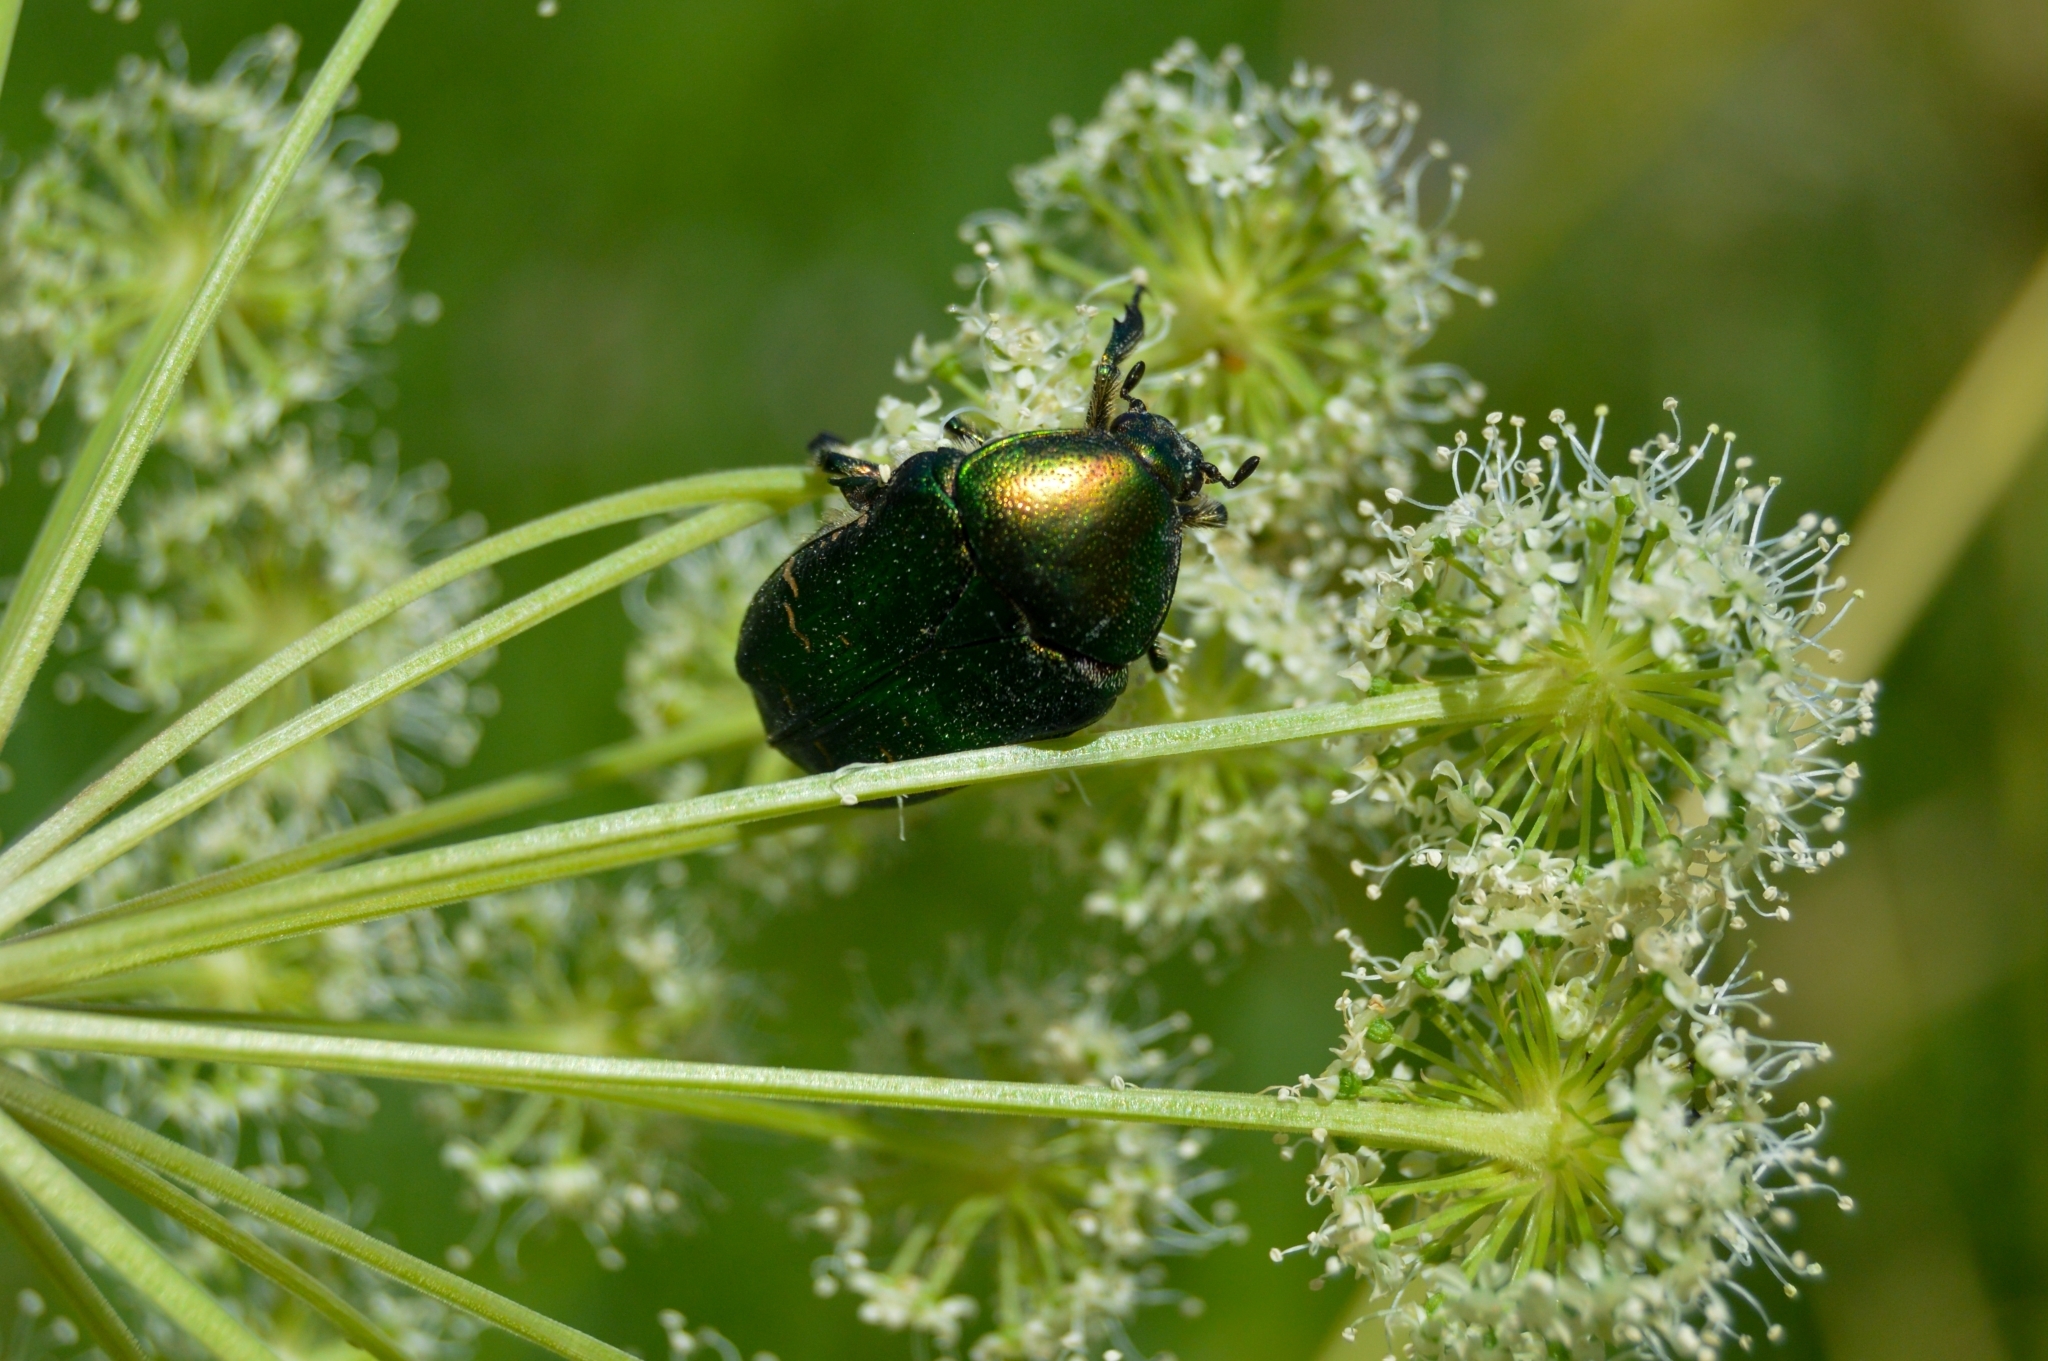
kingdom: Animalia
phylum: Arthropoda
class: Insecta
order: Coleoptera
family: Scarabaeidae
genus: Cetonia
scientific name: Cetonia aurata
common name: Rose chafer
